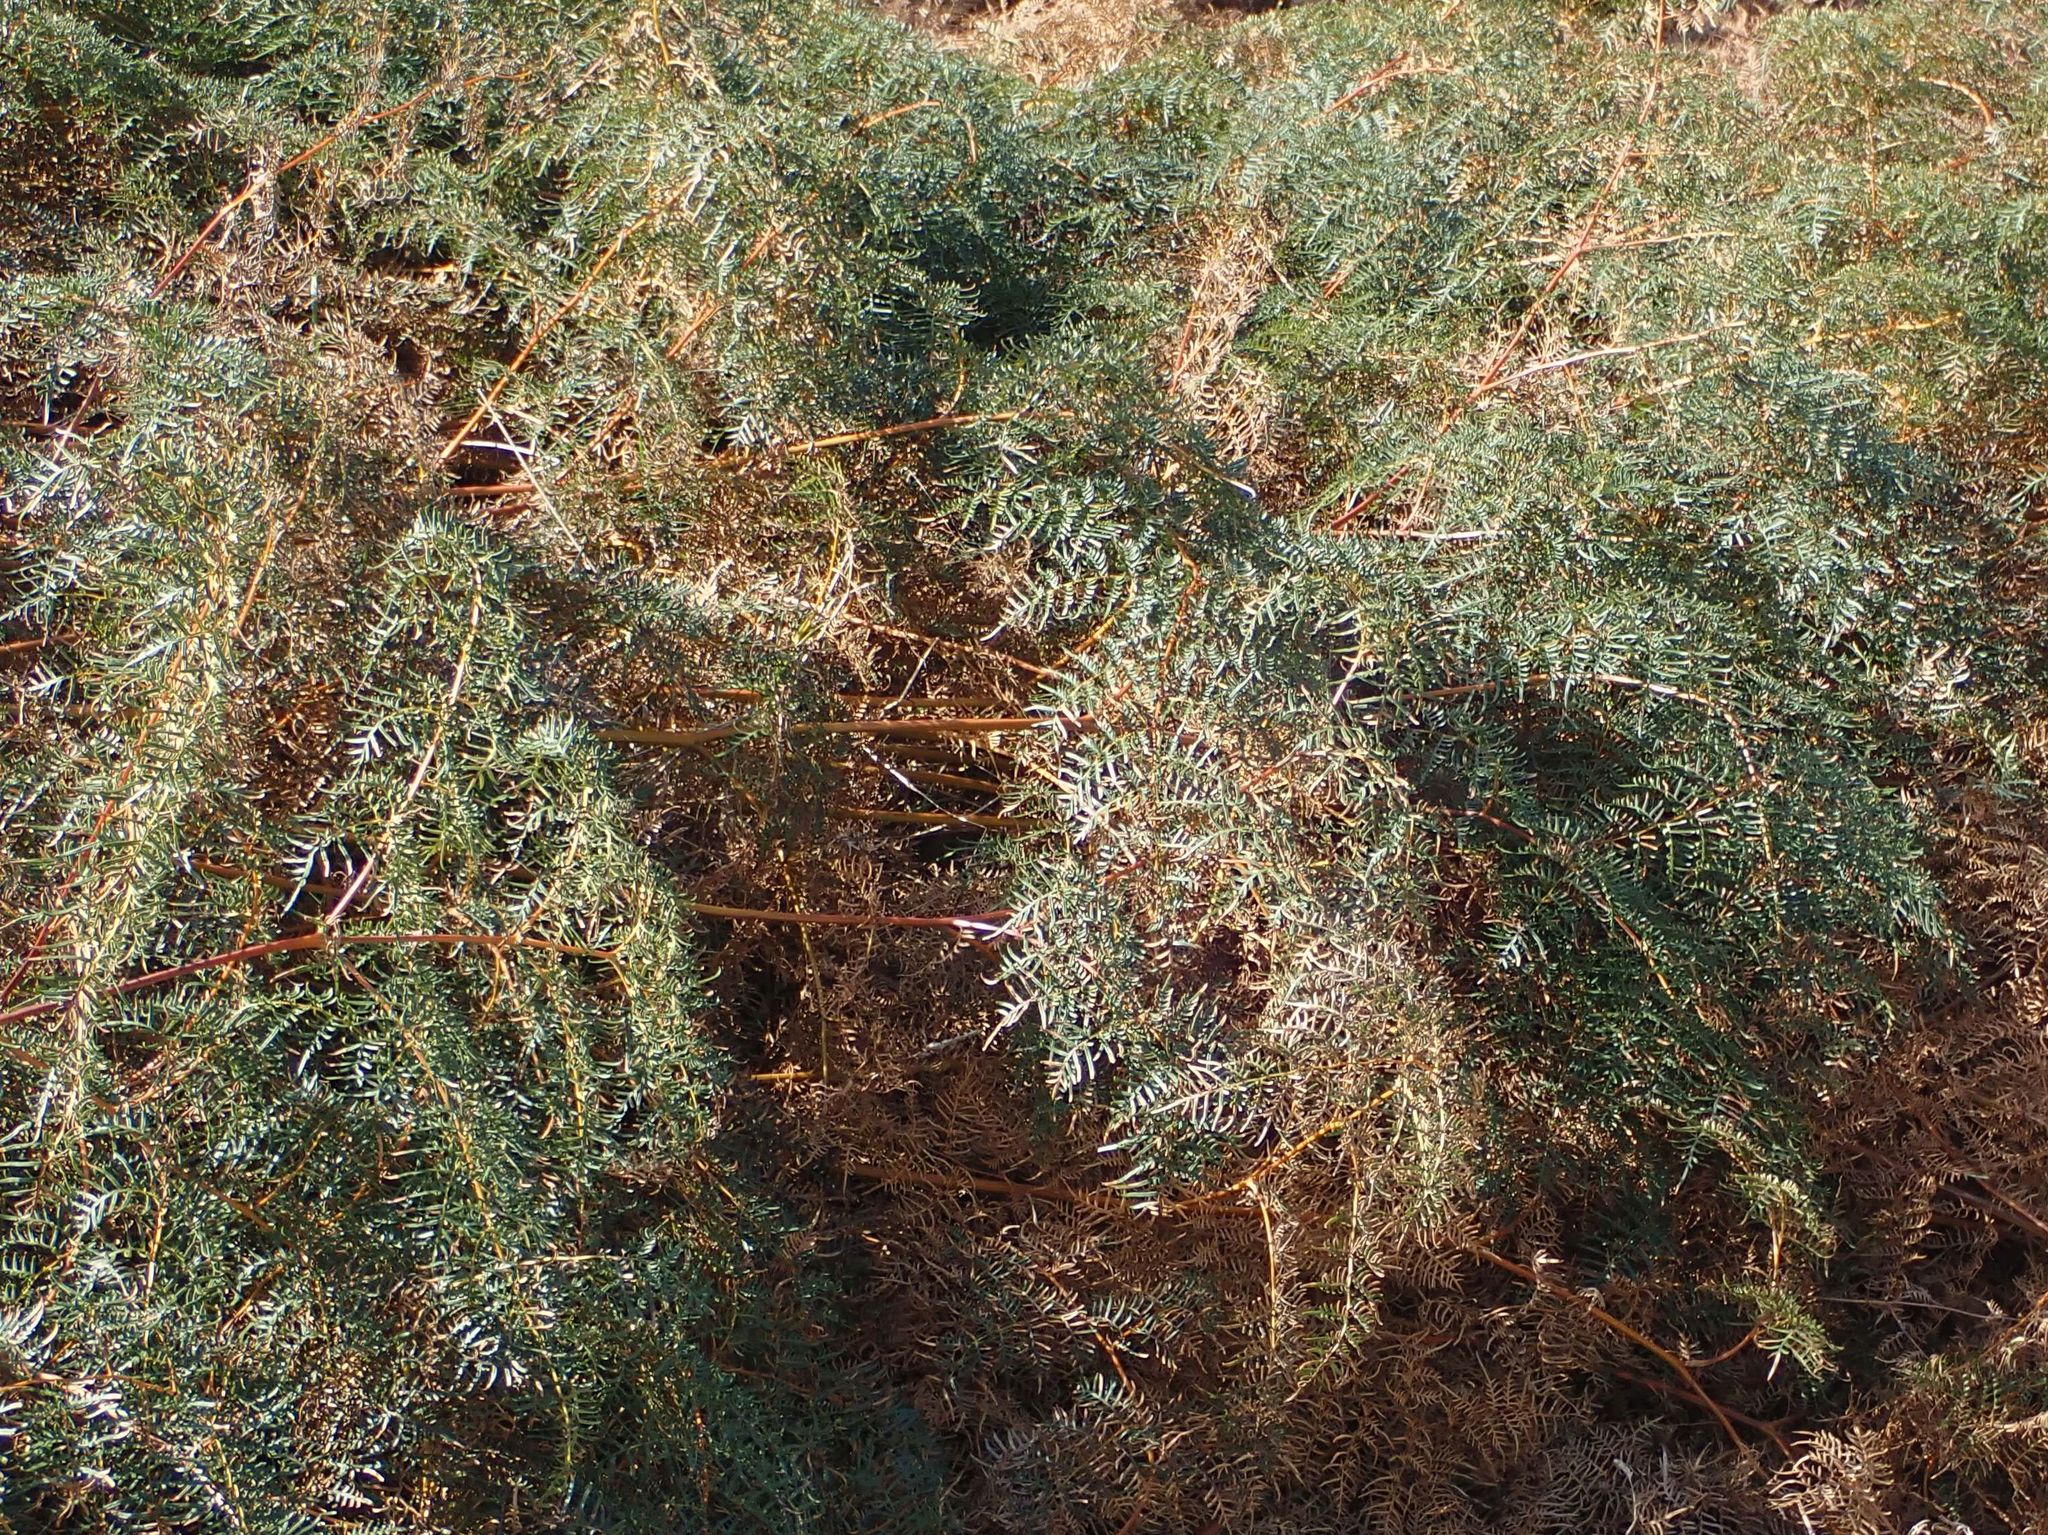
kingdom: Plantae
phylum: Tracheophyta
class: Polypodiopsida
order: Polypodiales
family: Dennstaedtiaceae
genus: Pteridium
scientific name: Pteridium esculentum
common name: Bracken fern
